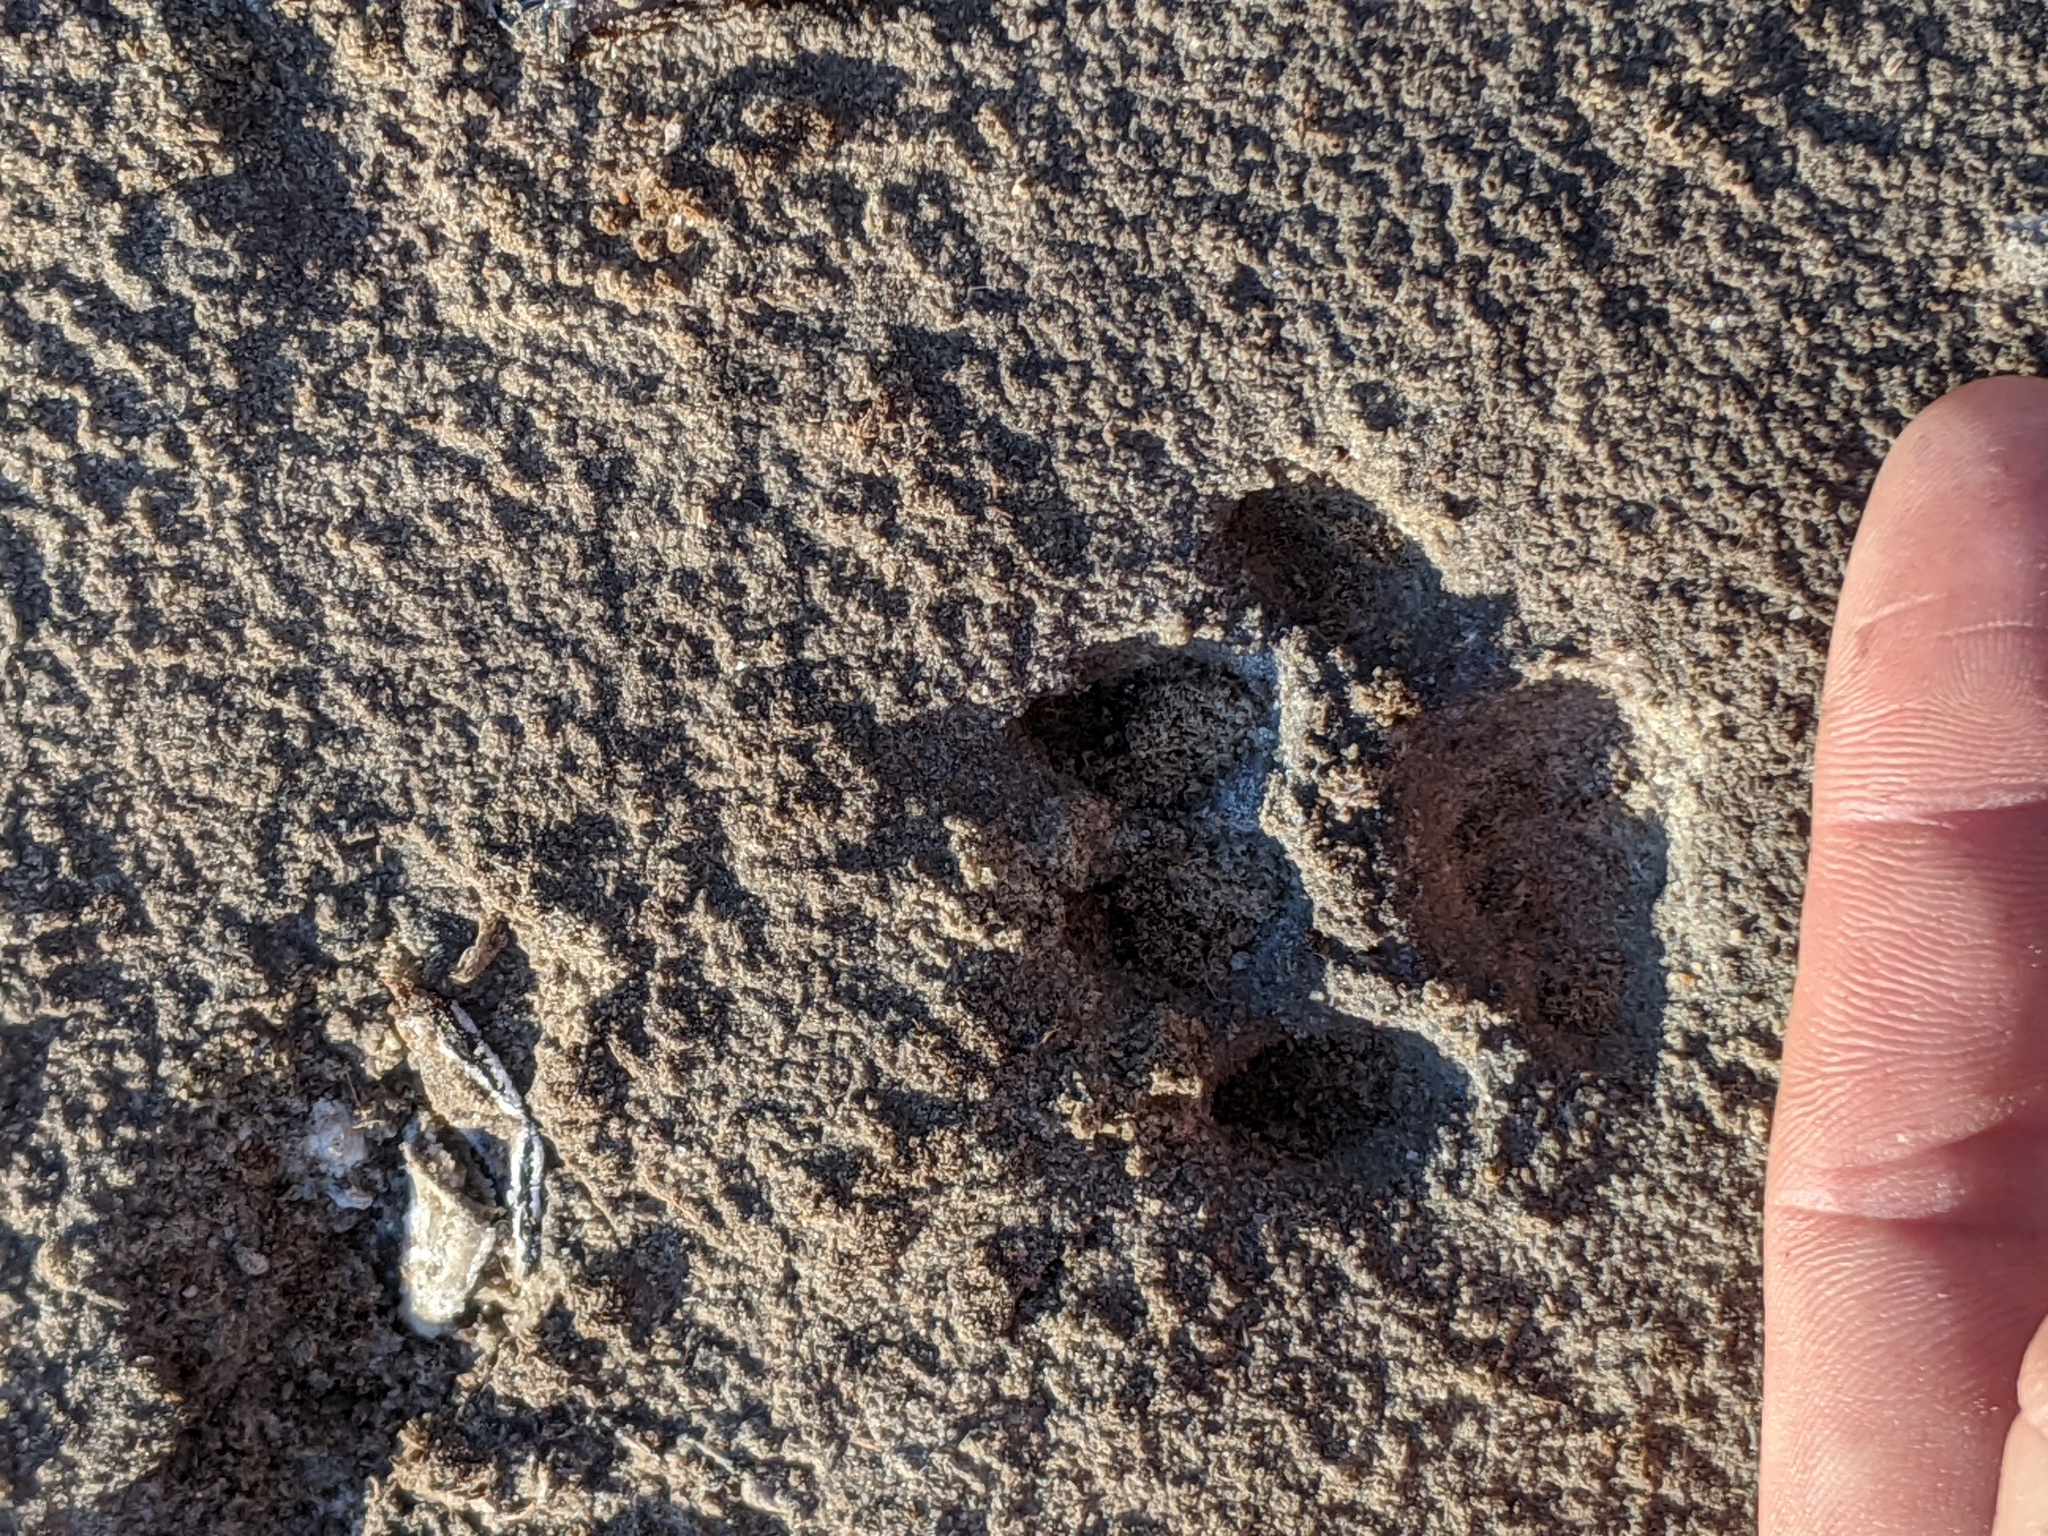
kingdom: Animalia
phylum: Chordata
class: Mammalia
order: Carnivora
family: Felidae
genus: Leopardus
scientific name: Leopardus pardalis
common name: Ocelot
